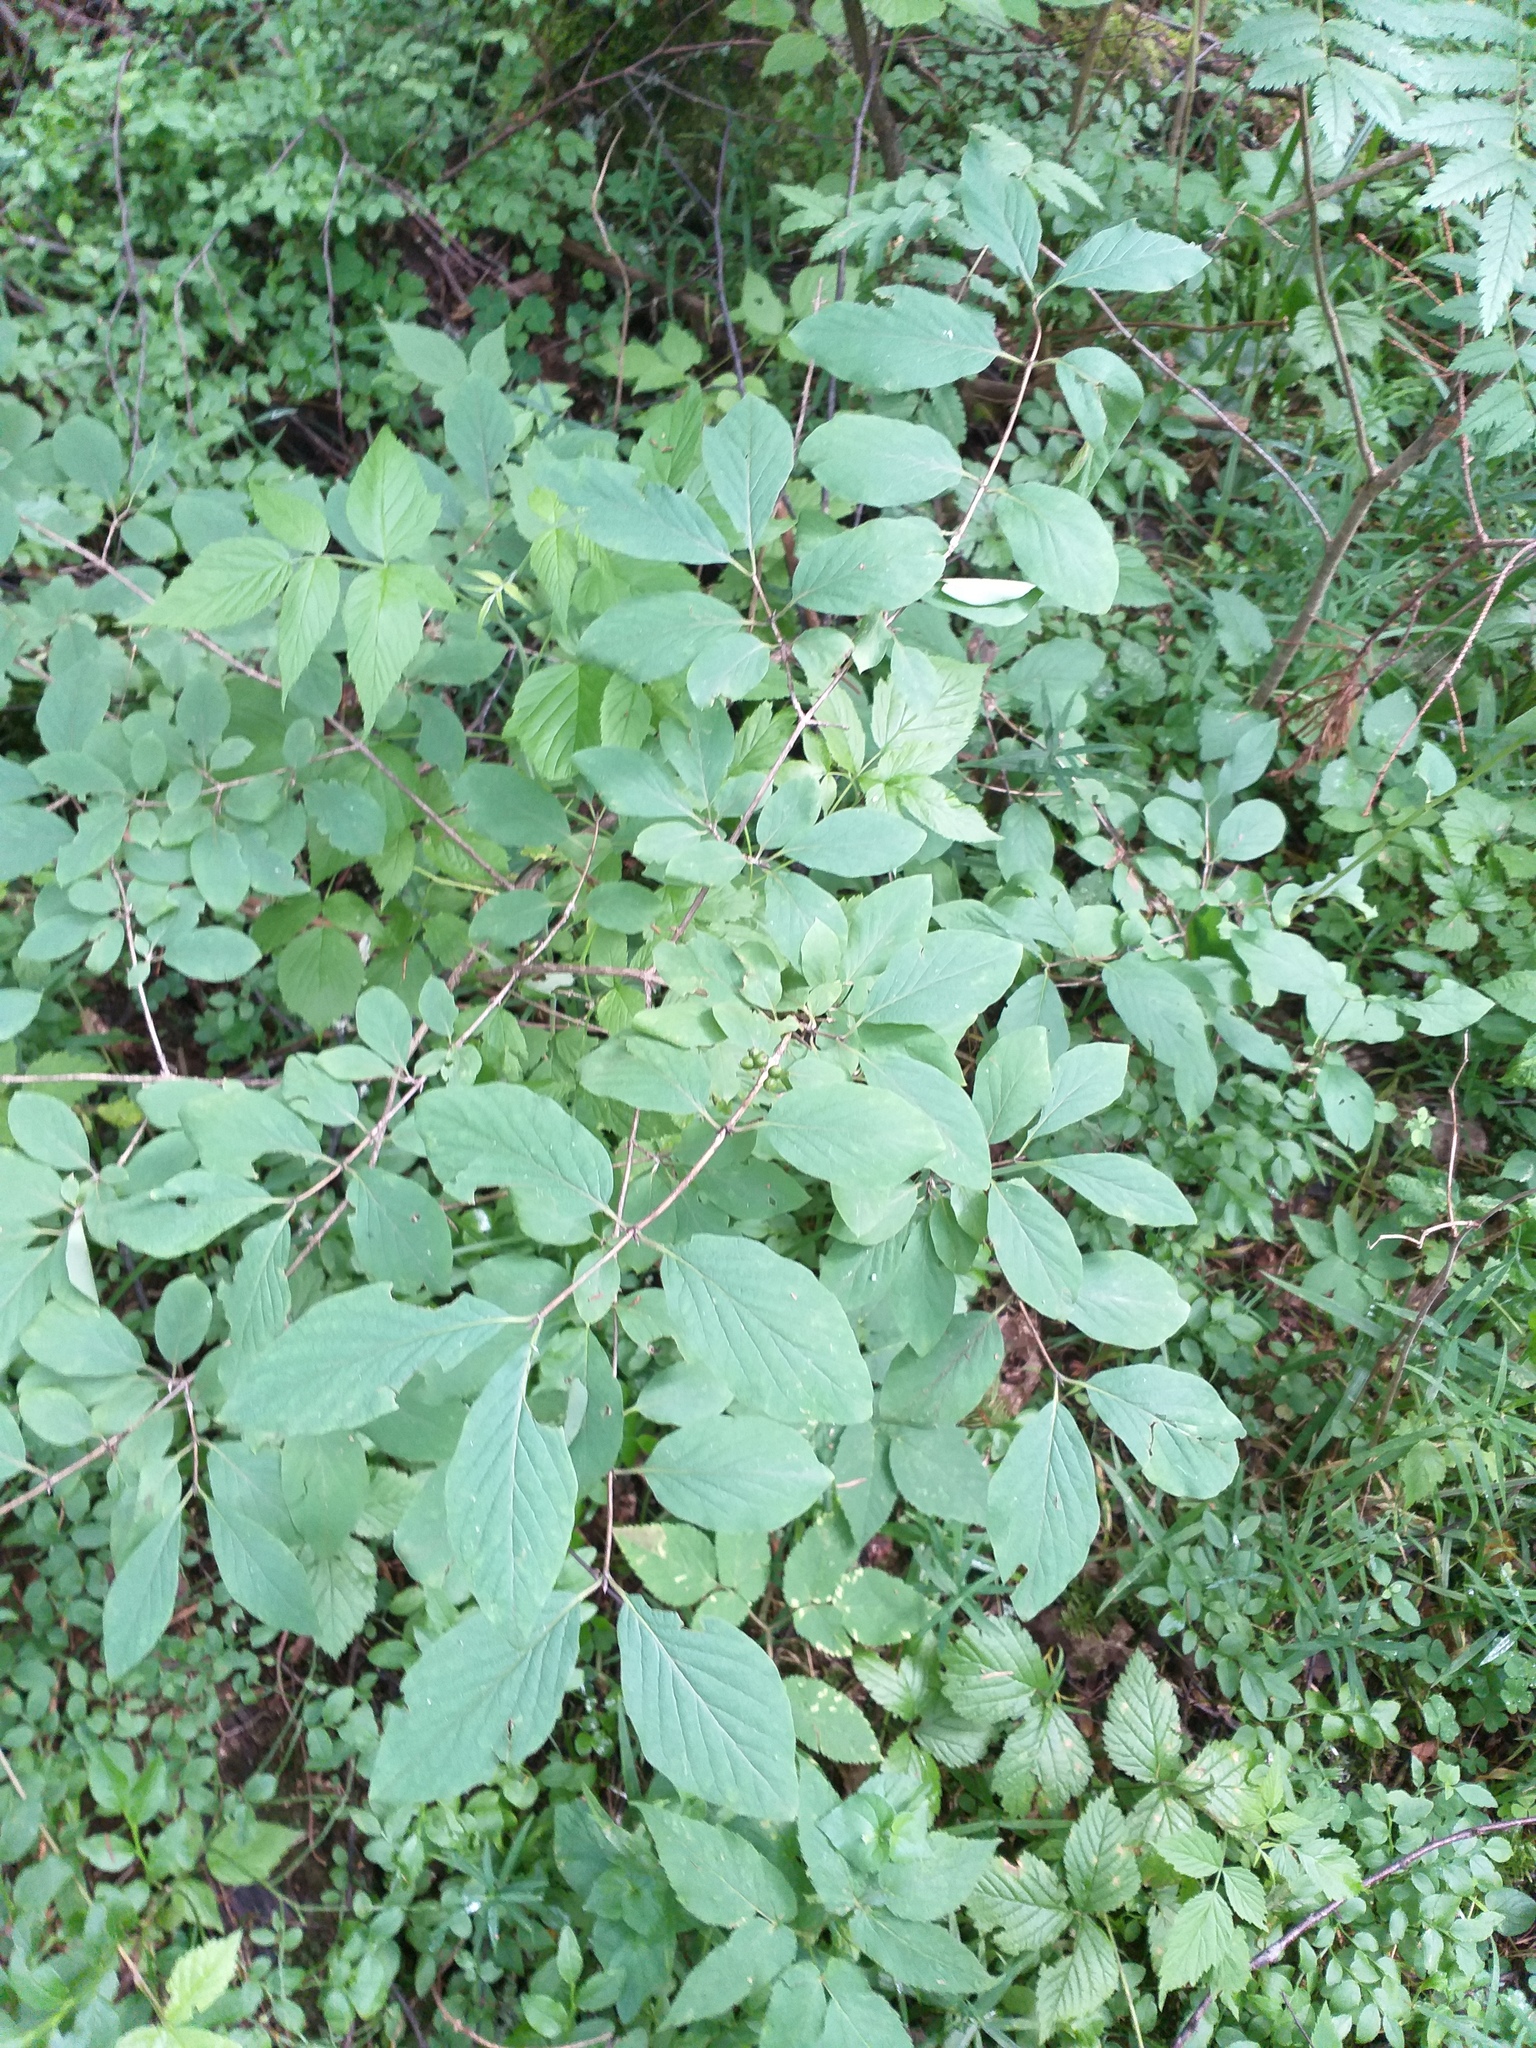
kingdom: Plantae
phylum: Tracheophyta
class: Magnoliopsida
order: Dipsacales
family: Caprifoliaceae
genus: Lonicera
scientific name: Lonicera xylosteum
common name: Fly honeysuckle
